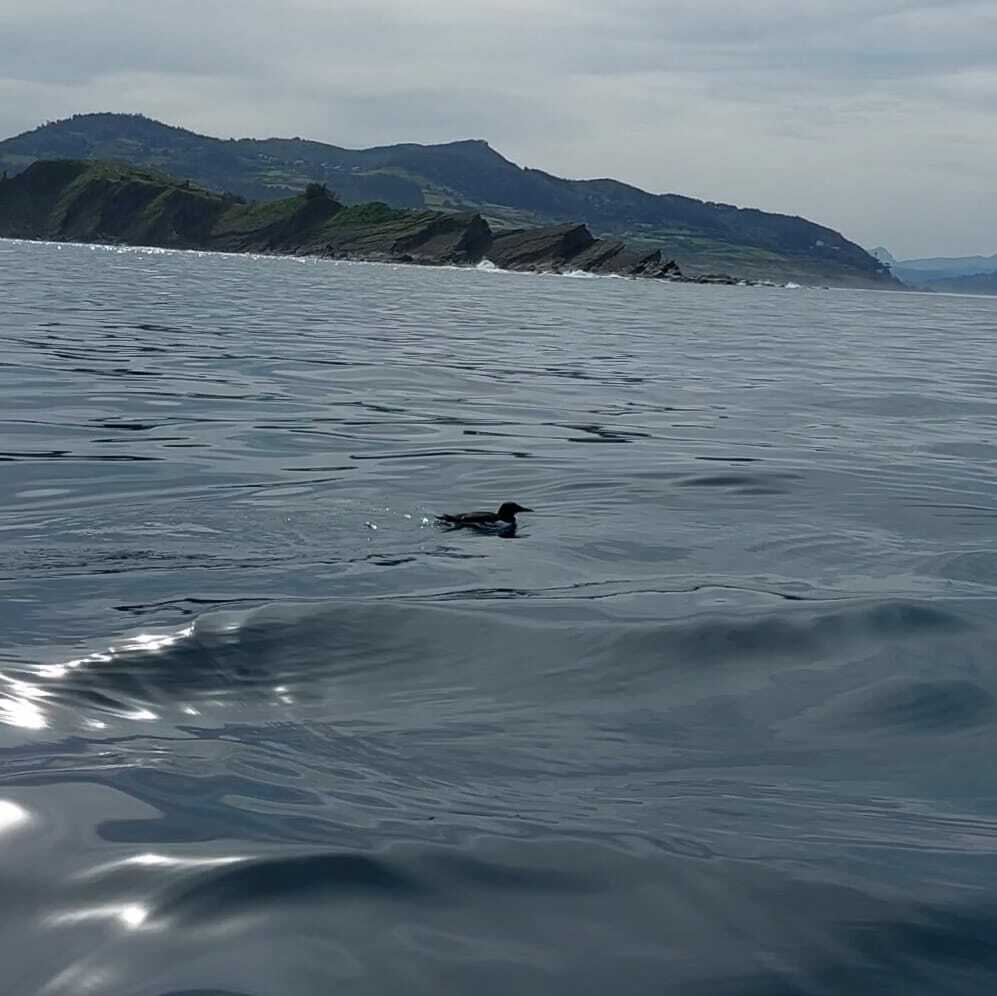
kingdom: Animalia
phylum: Chordata
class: Aves
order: Charadriiformes
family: Alcidae
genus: Uria
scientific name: Uria aalge
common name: Common murre
